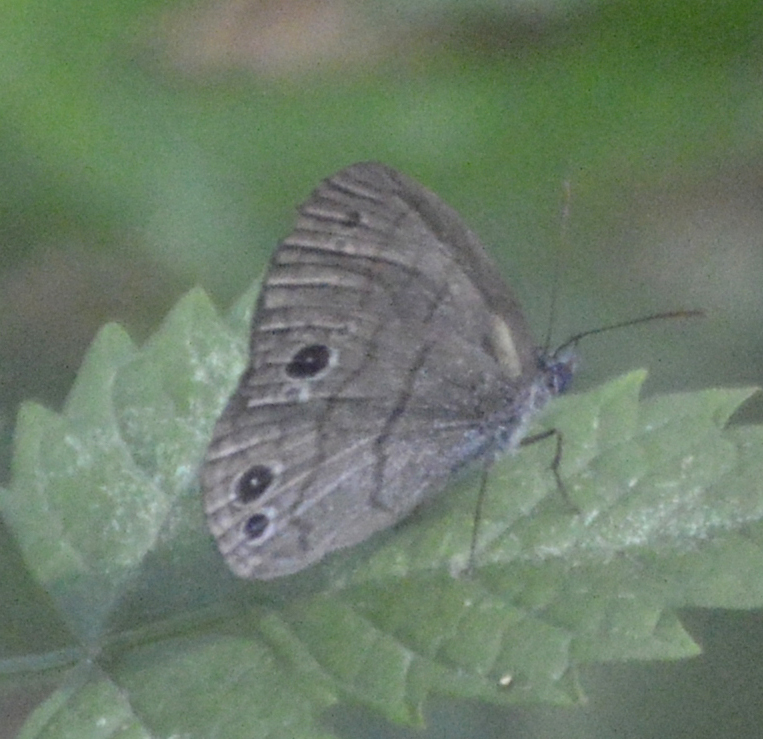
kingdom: Animalia
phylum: Arthropoda
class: Insecta
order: Lepidoptera
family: Nymphalidae
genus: Hermeuptychia
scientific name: Hermeuptychia hermes
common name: Hermes satyr
